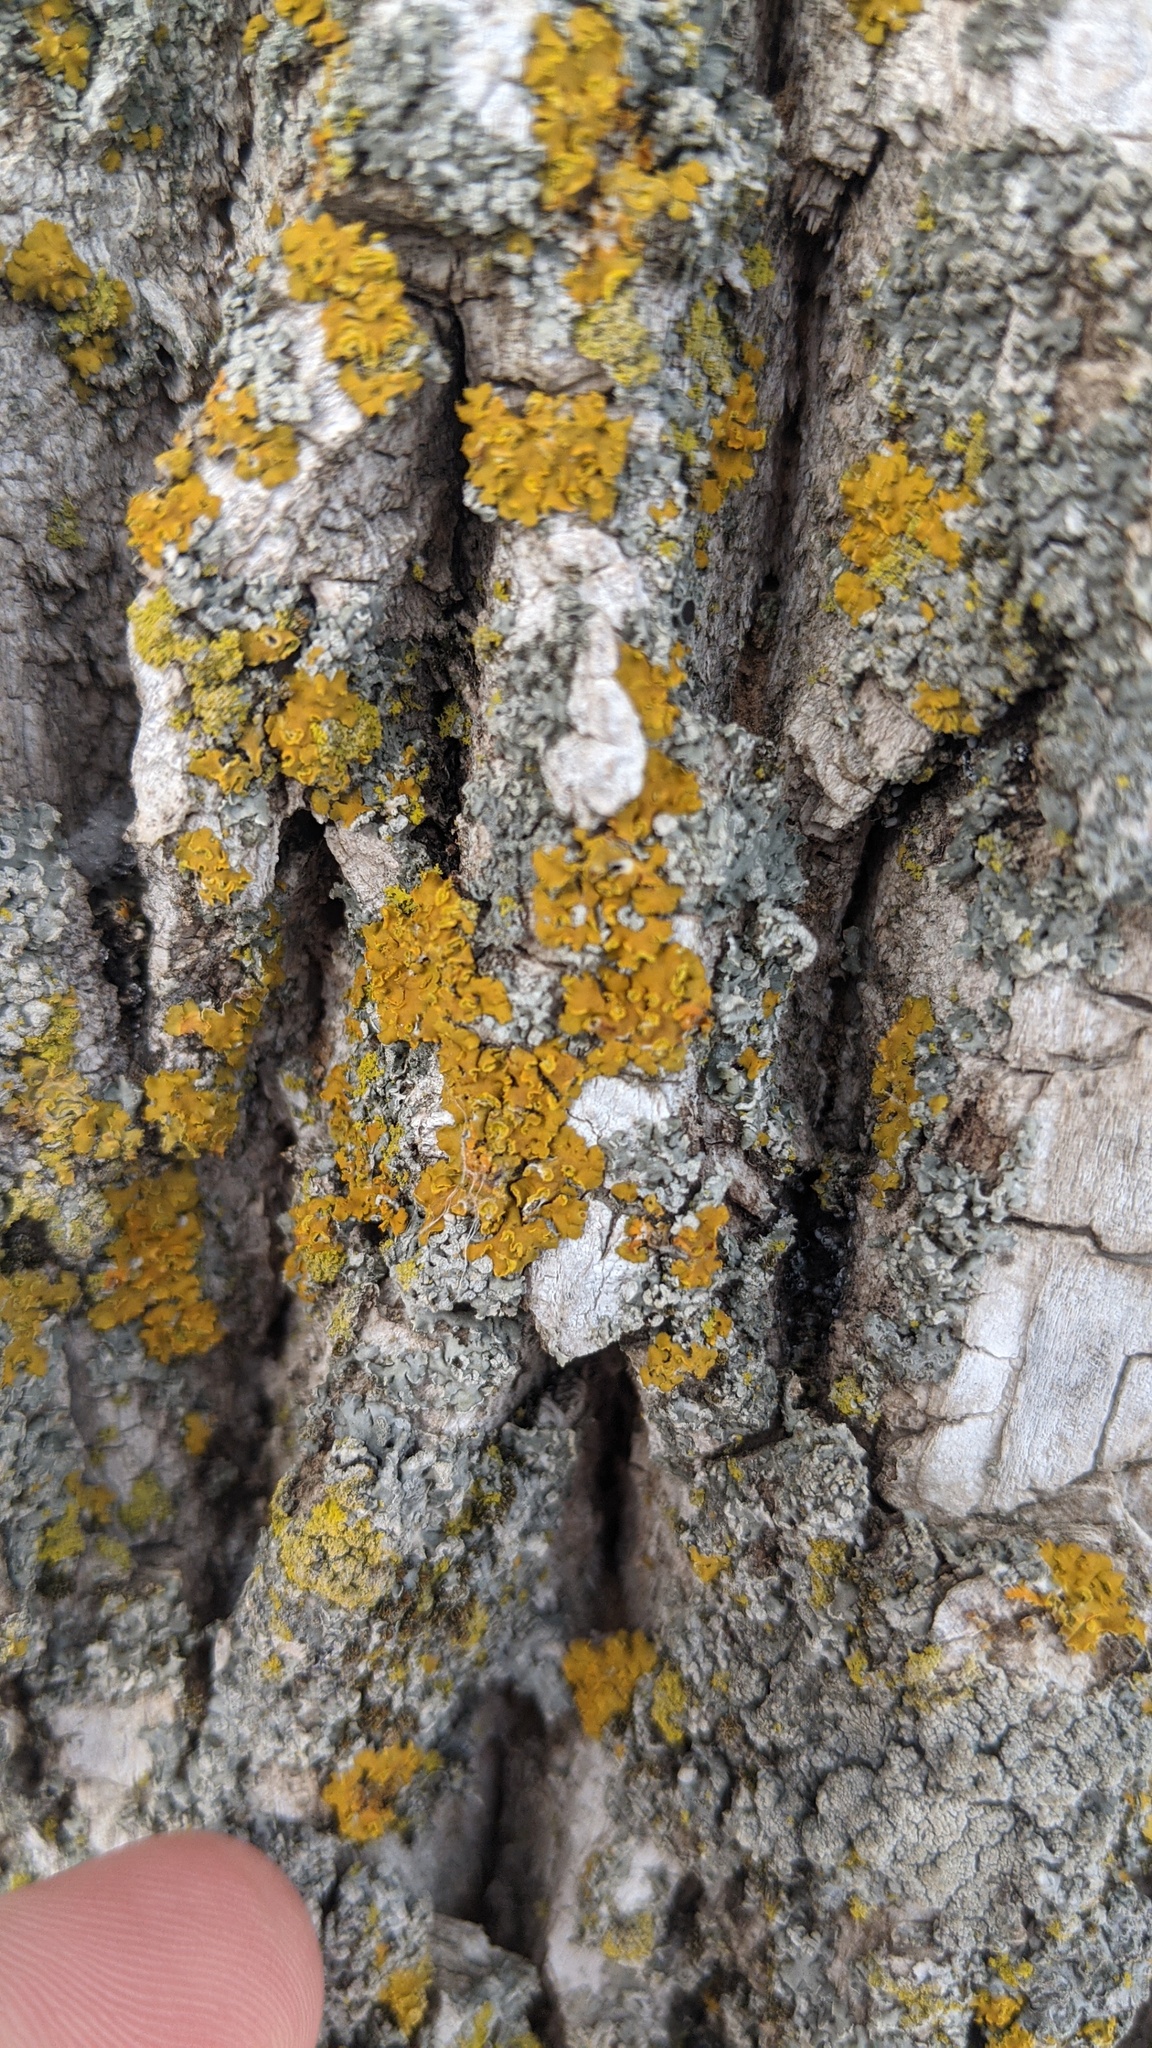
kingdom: Fungi
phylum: Ascomycota
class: Lecanoromycetes
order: Teloschistales
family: Teloschistaceae
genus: Oxneria
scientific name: Oxneria fallax
